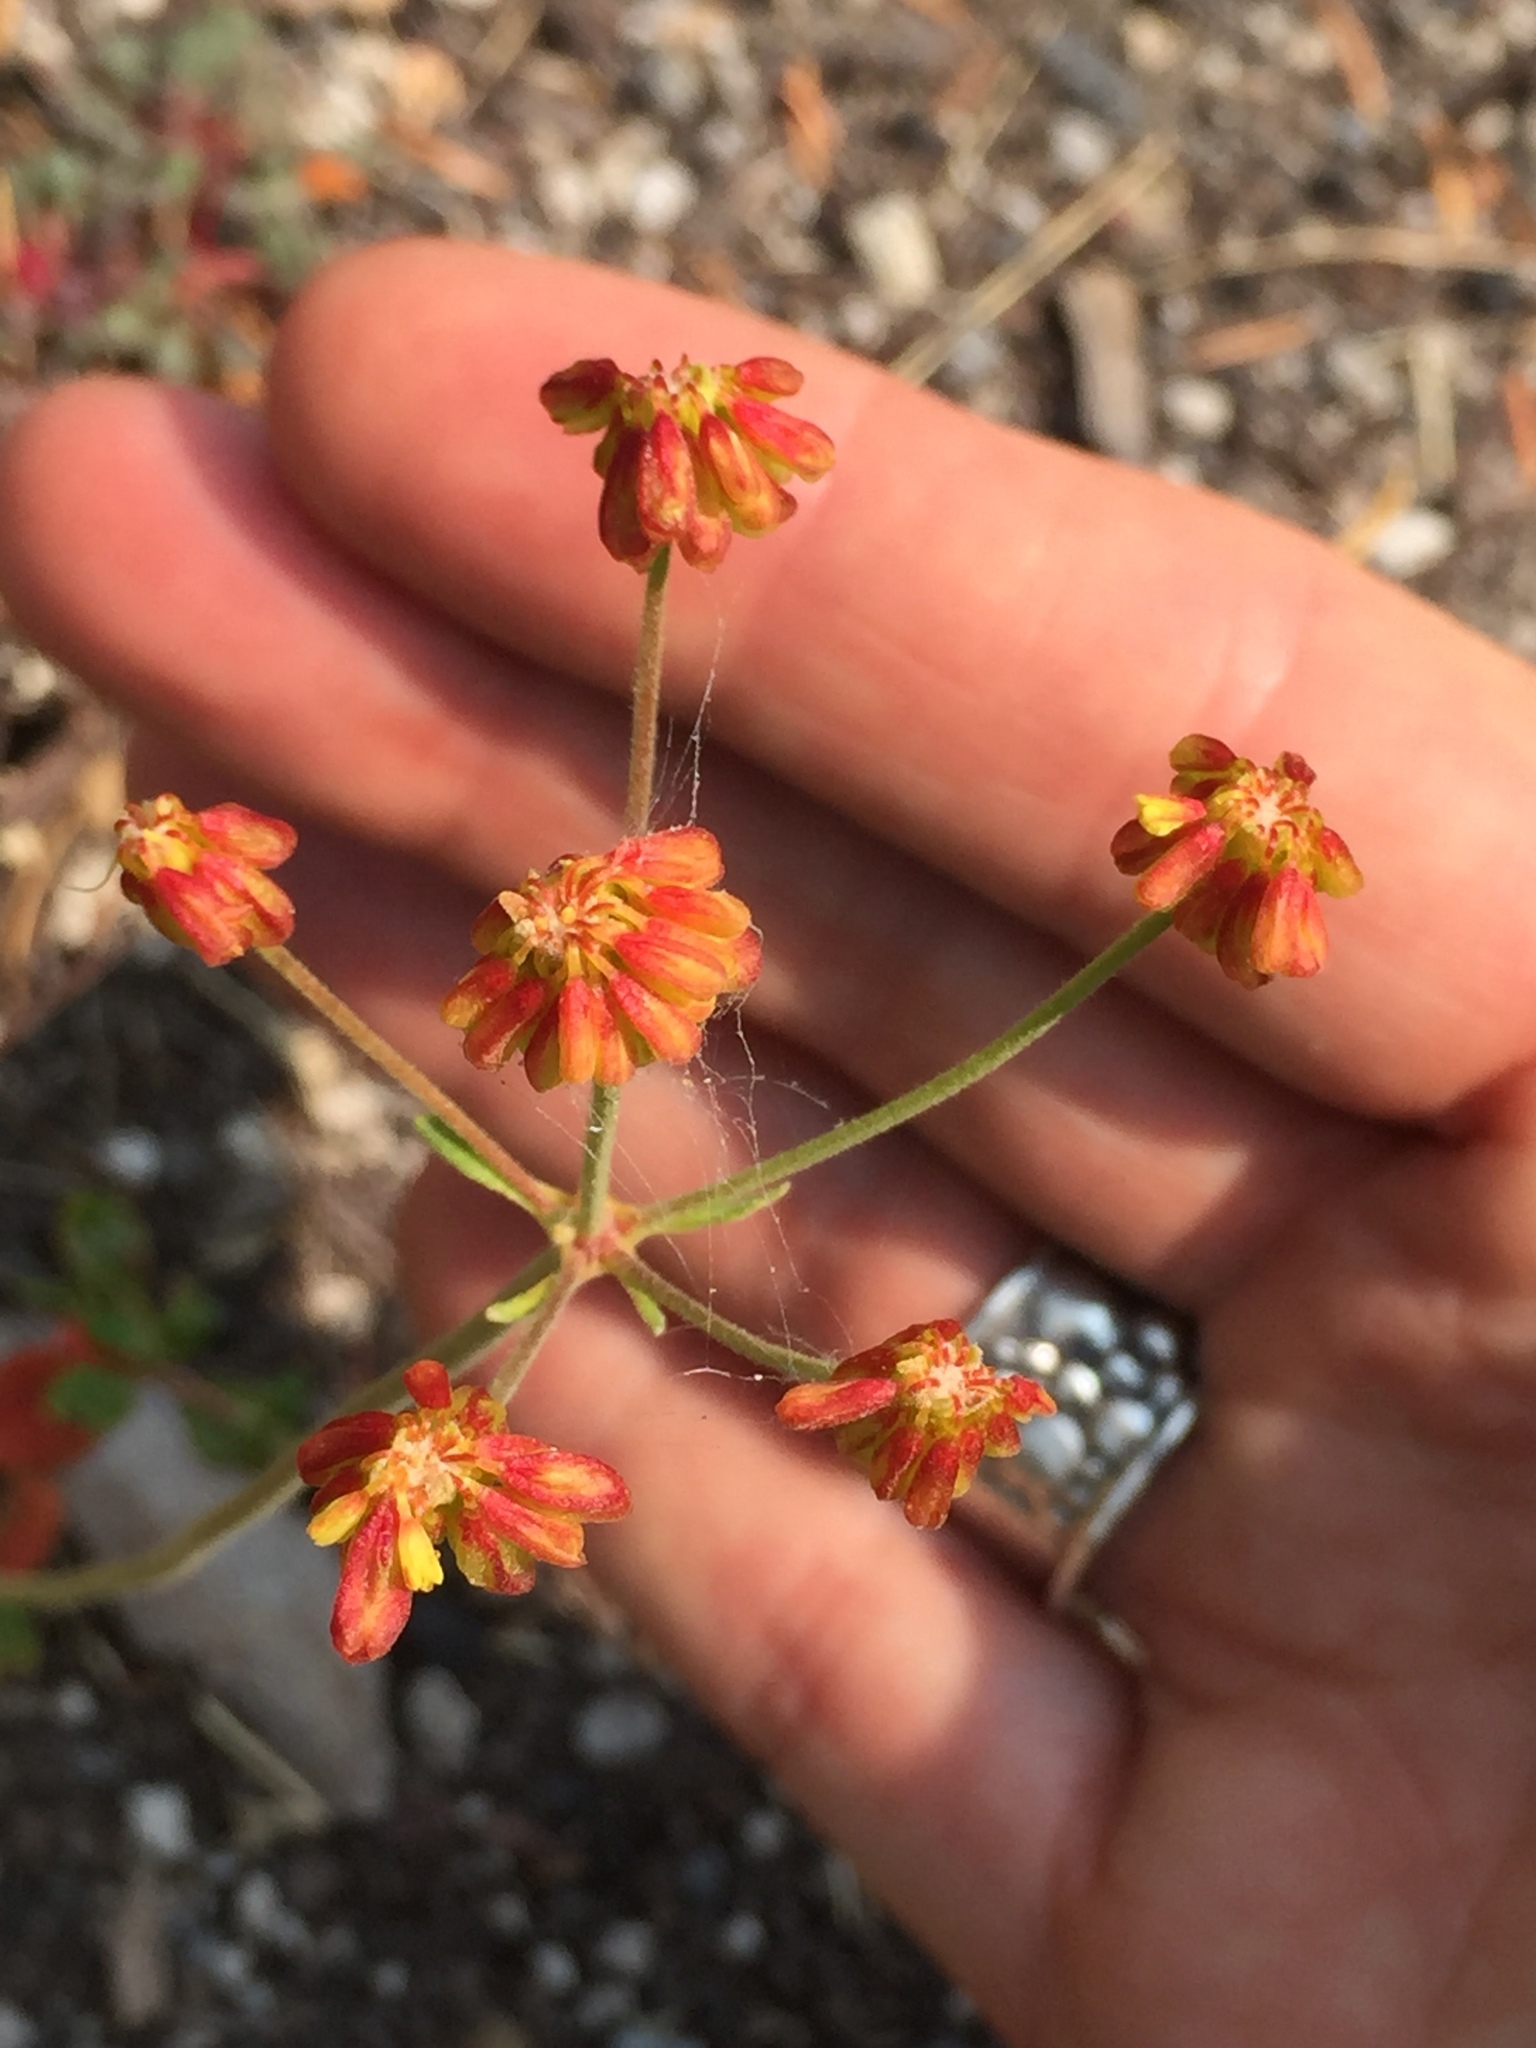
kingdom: Plantae
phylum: Tracheophyta
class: Magnoliopsida
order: Caryophyllales
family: Polygonaceae
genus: Eriogonum
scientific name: Eriogonum marifolium
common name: Marum-leaf wild buckwheat
